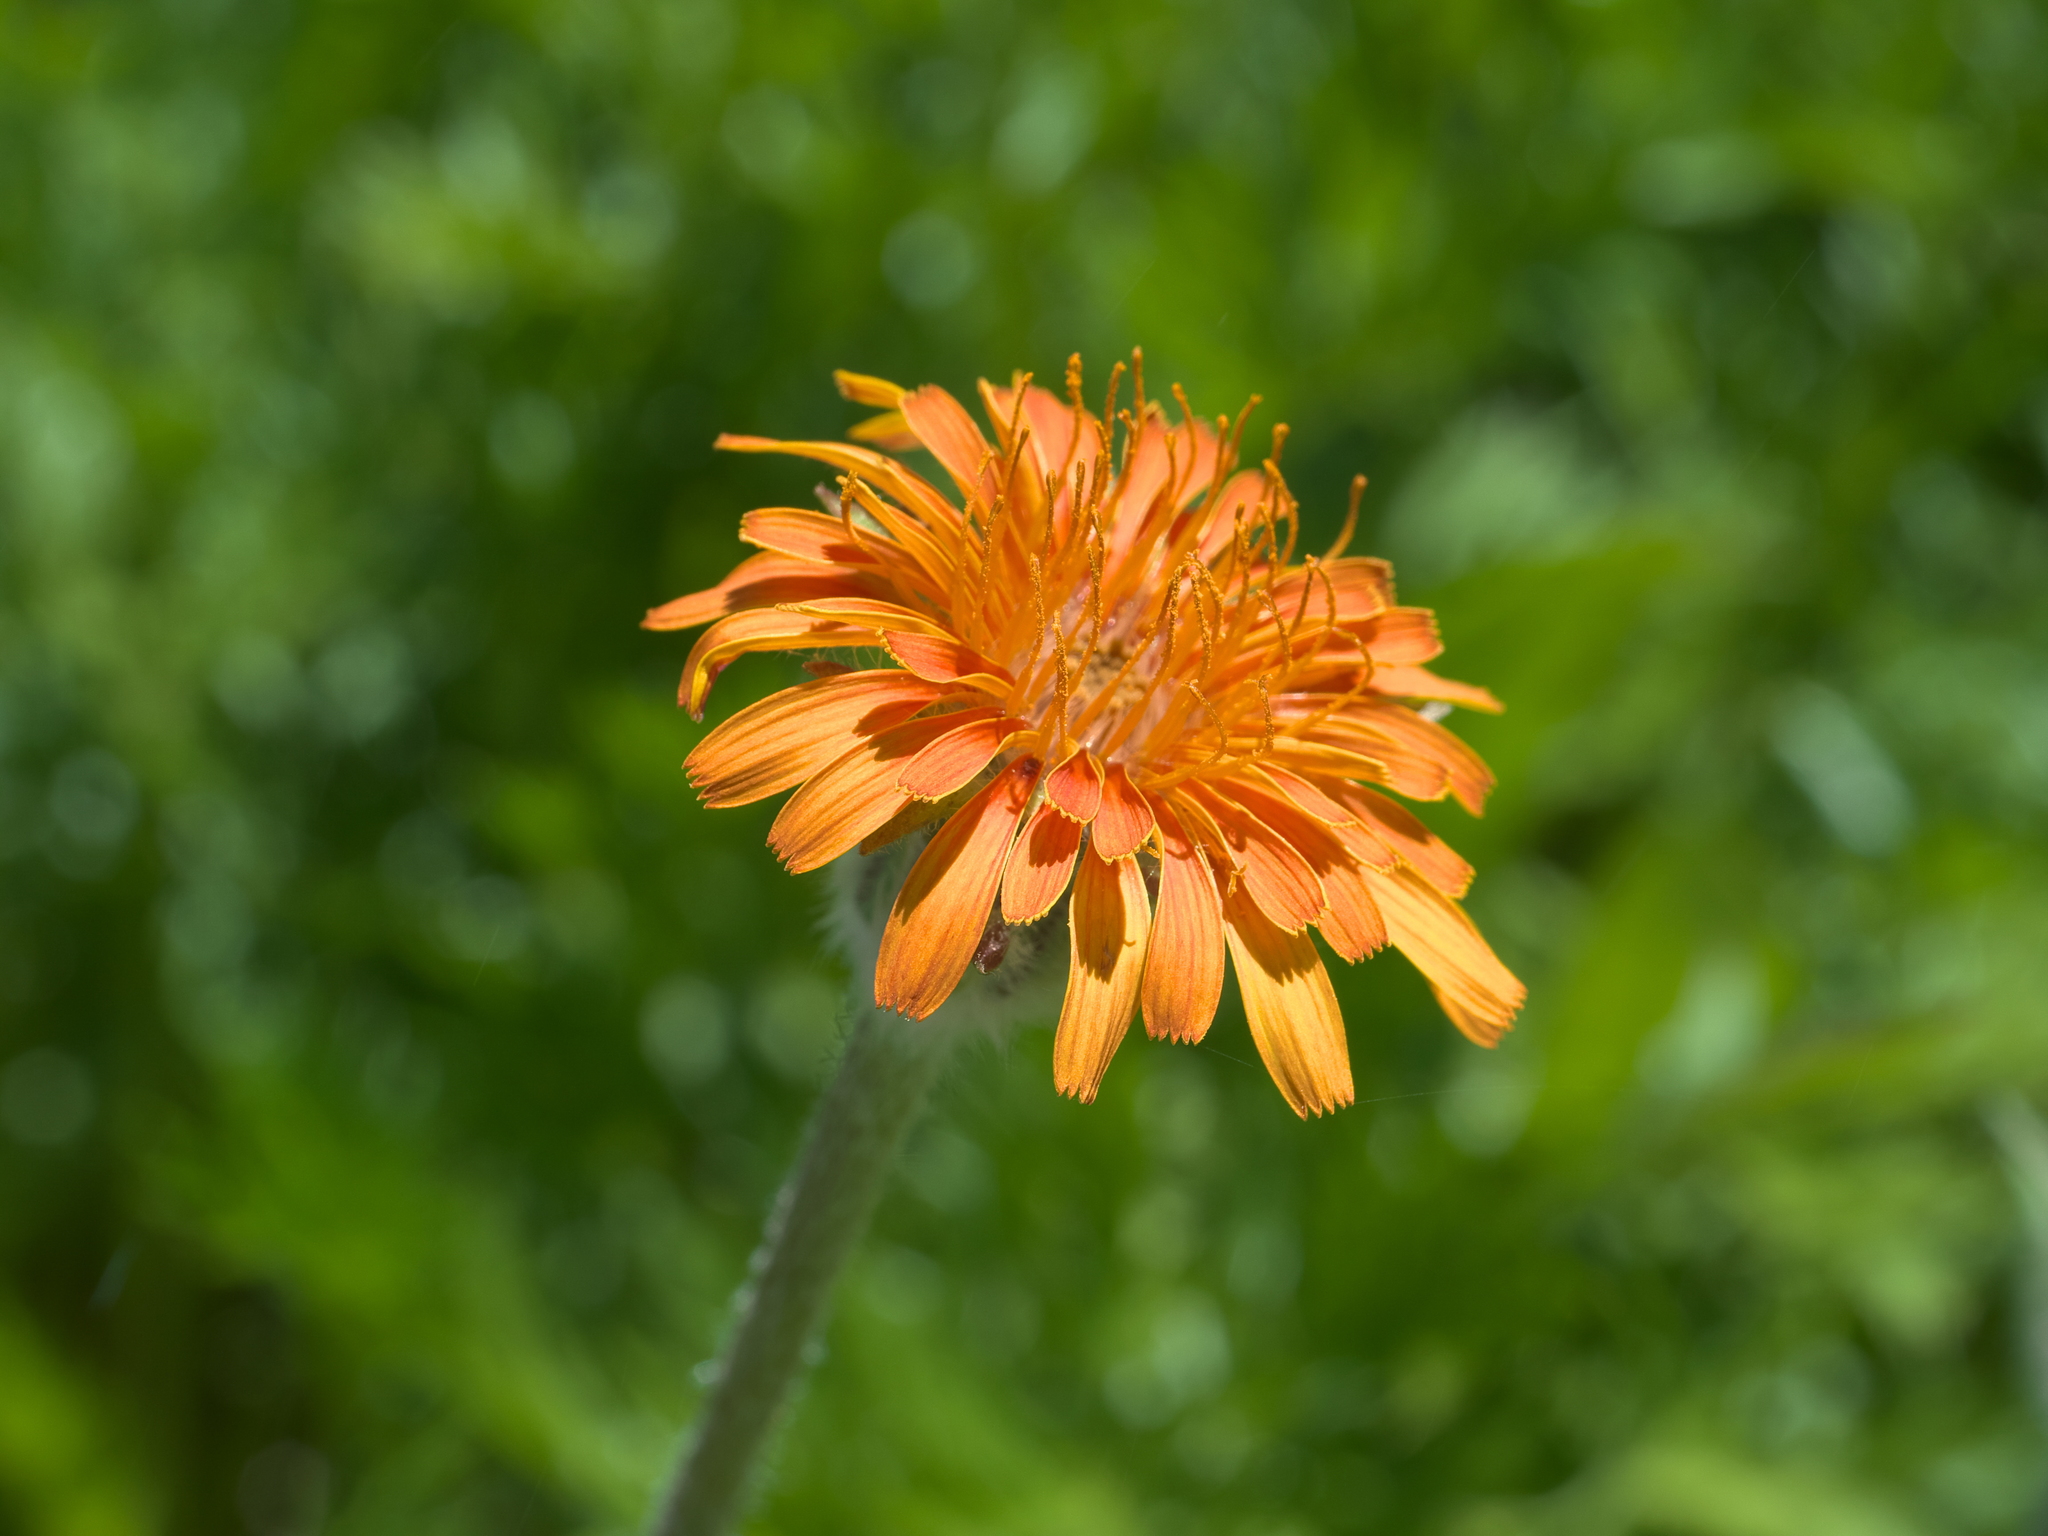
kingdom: Plantae
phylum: Tracheophyta
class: Magnoliopsida
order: Asterales
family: Asteraceae
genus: Agoseris
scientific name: Agoseris aurantiaca
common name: Mountain agoseris
